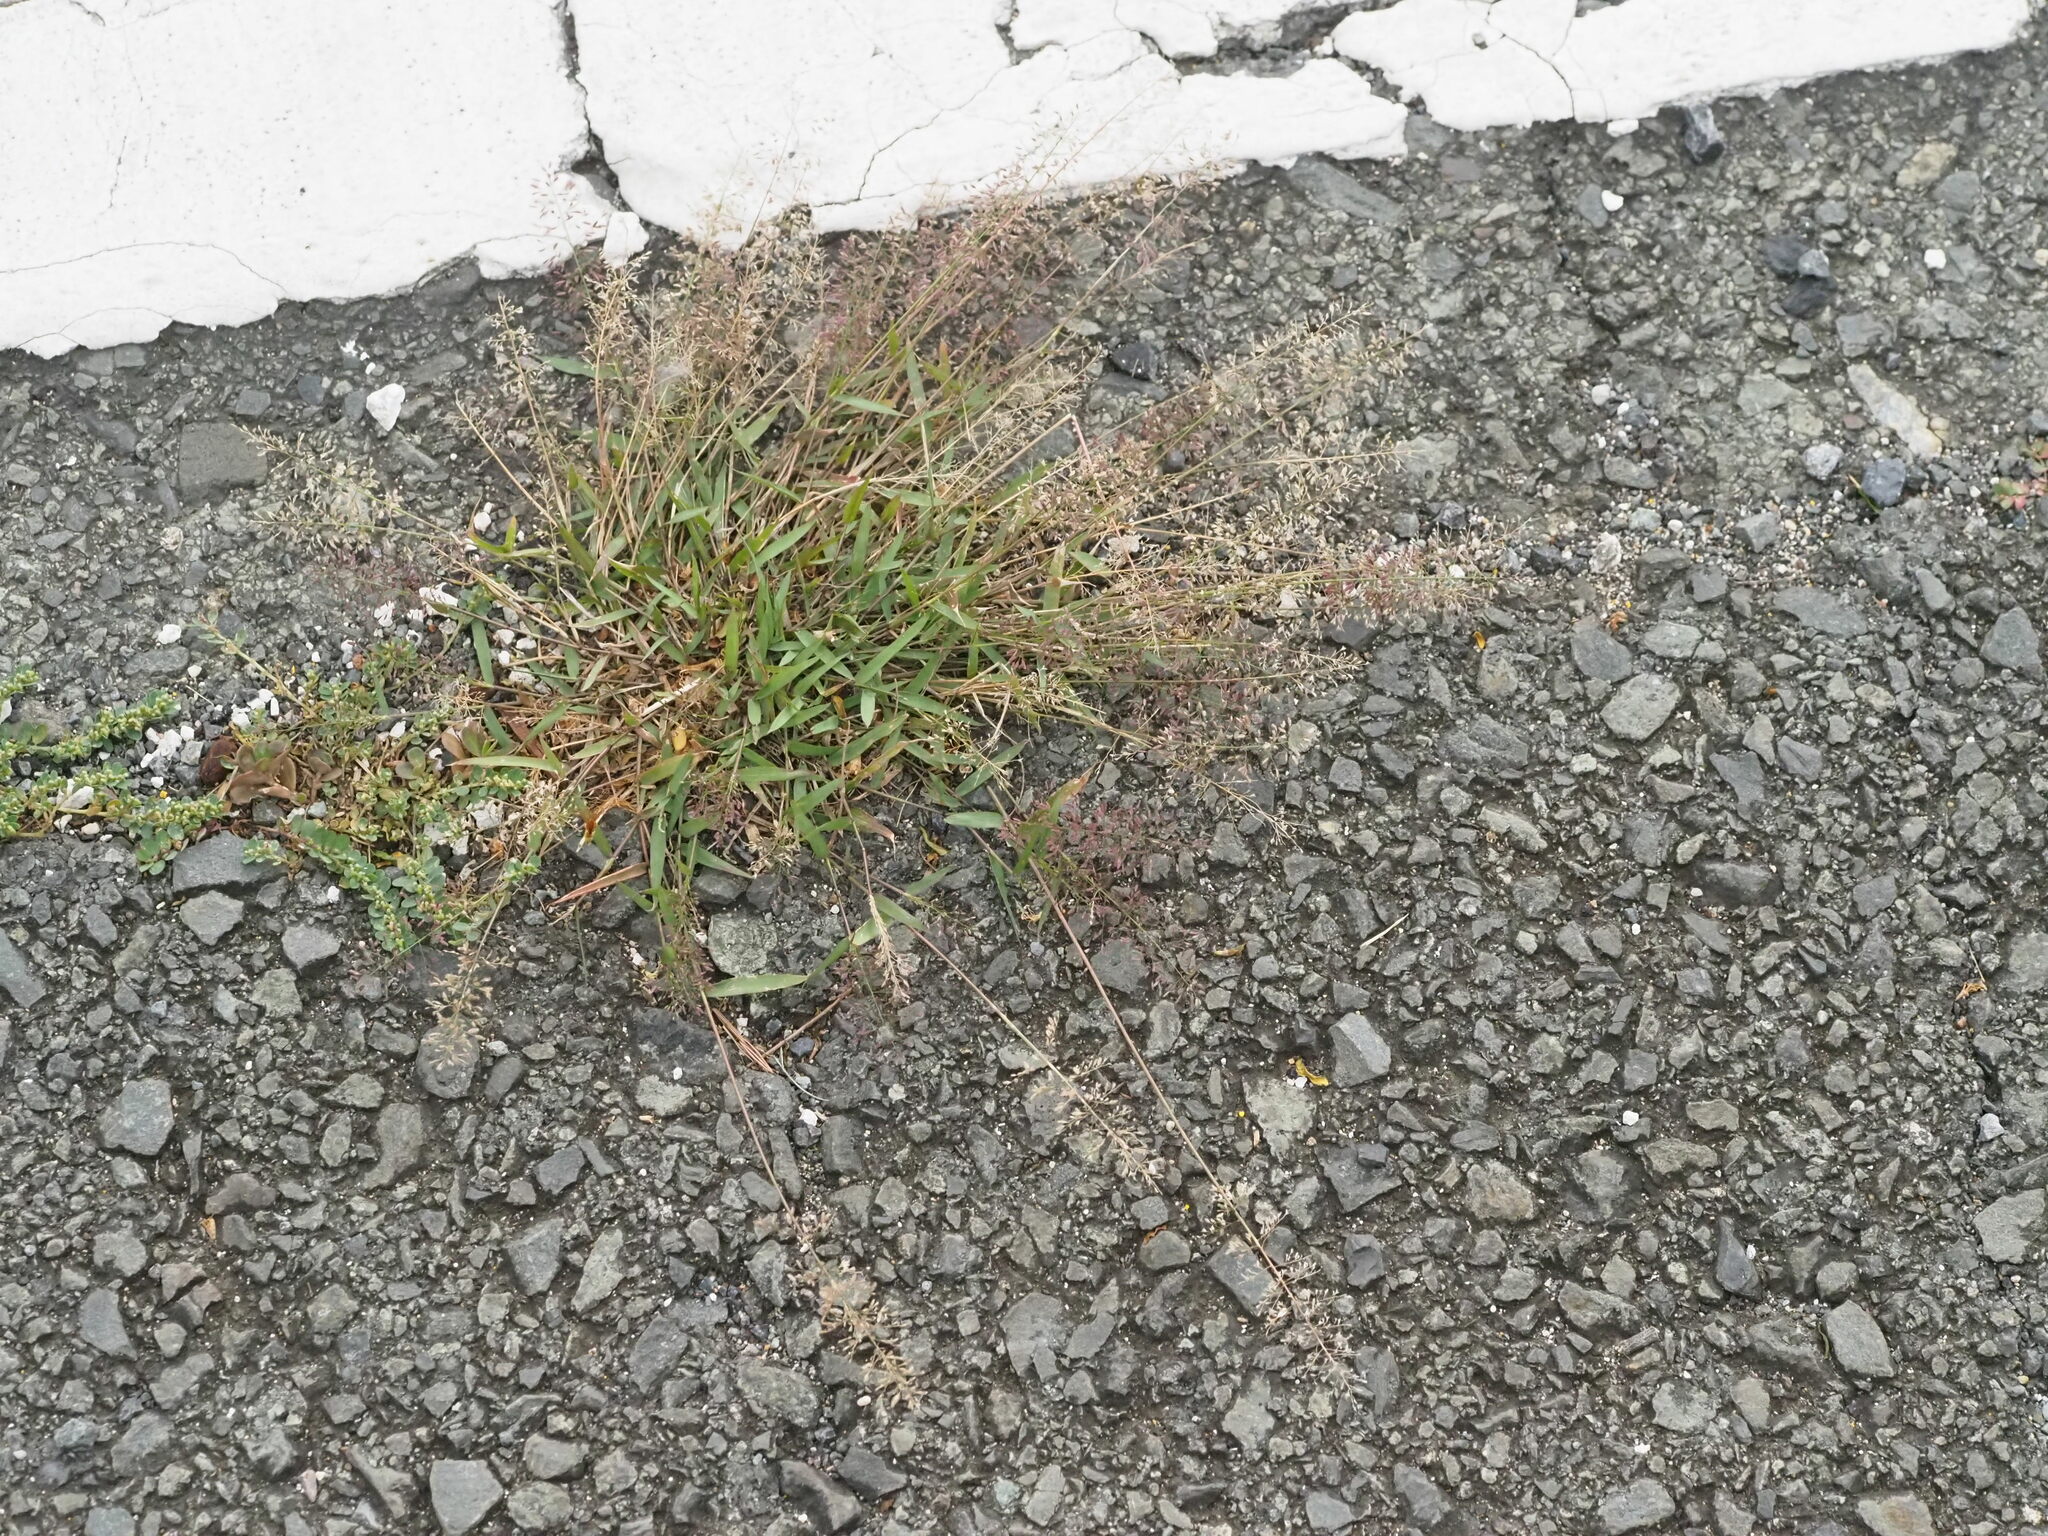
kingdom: Plantae
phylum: Tracheophyta
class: Liliopsida
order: Poales
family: Poaceae
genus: Eragrostis
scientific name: Eragrostis tenella
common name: Japanese lovegrass
